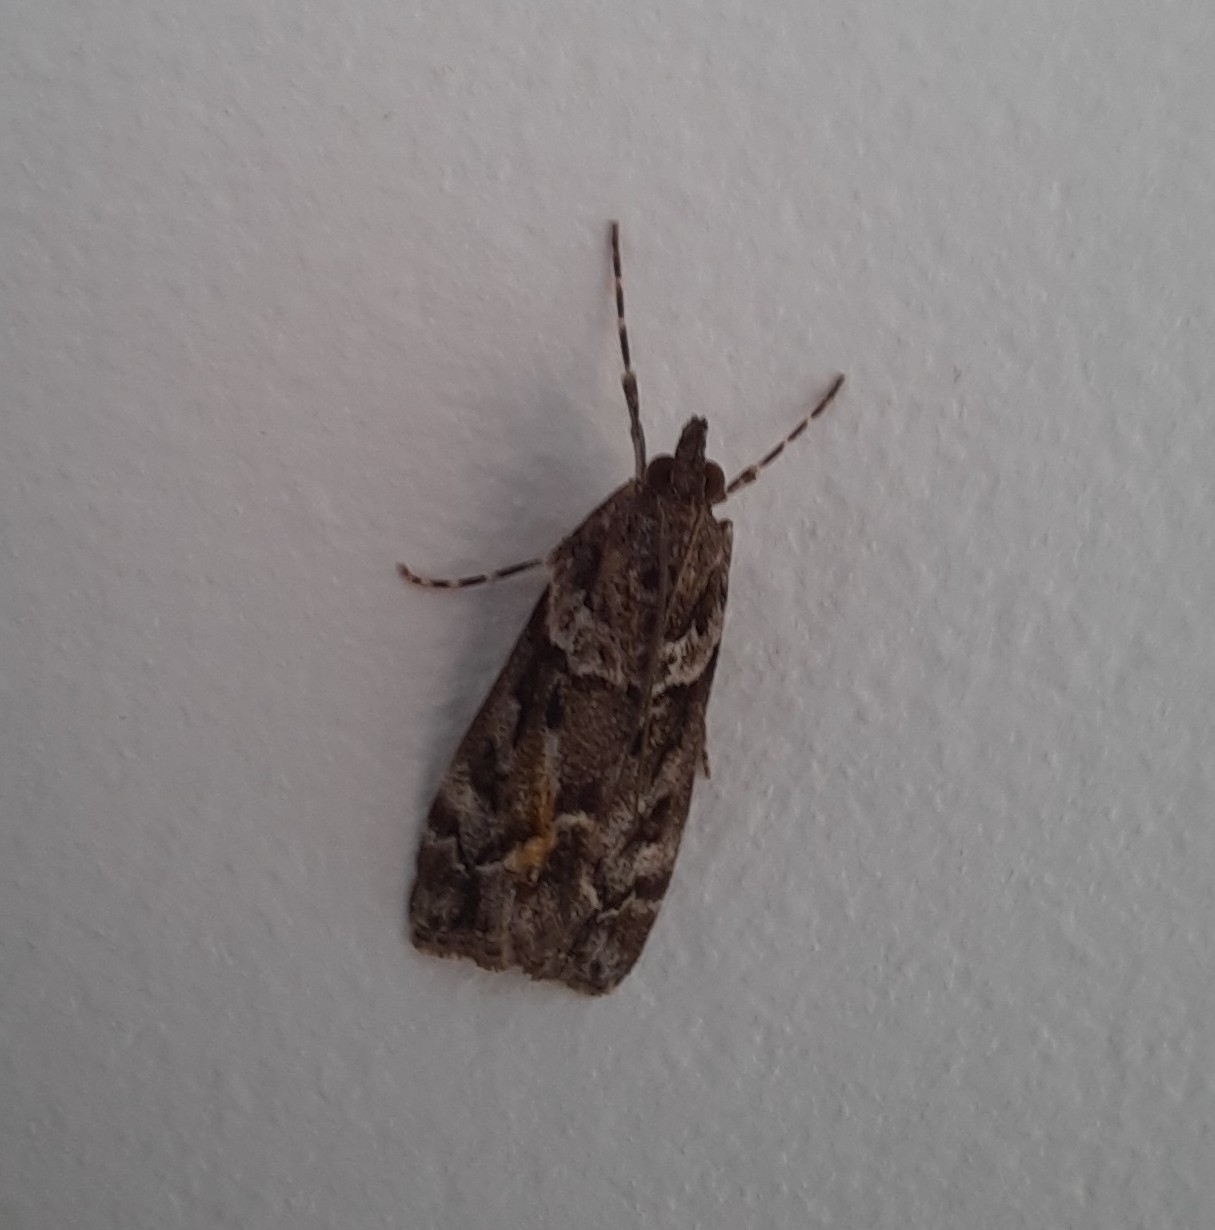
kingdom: Animalia
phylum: Arthropoda
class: Insecta
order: Lepidoptera
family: Crambidae
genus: Eudonia
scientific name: Eudonia submarginalis
